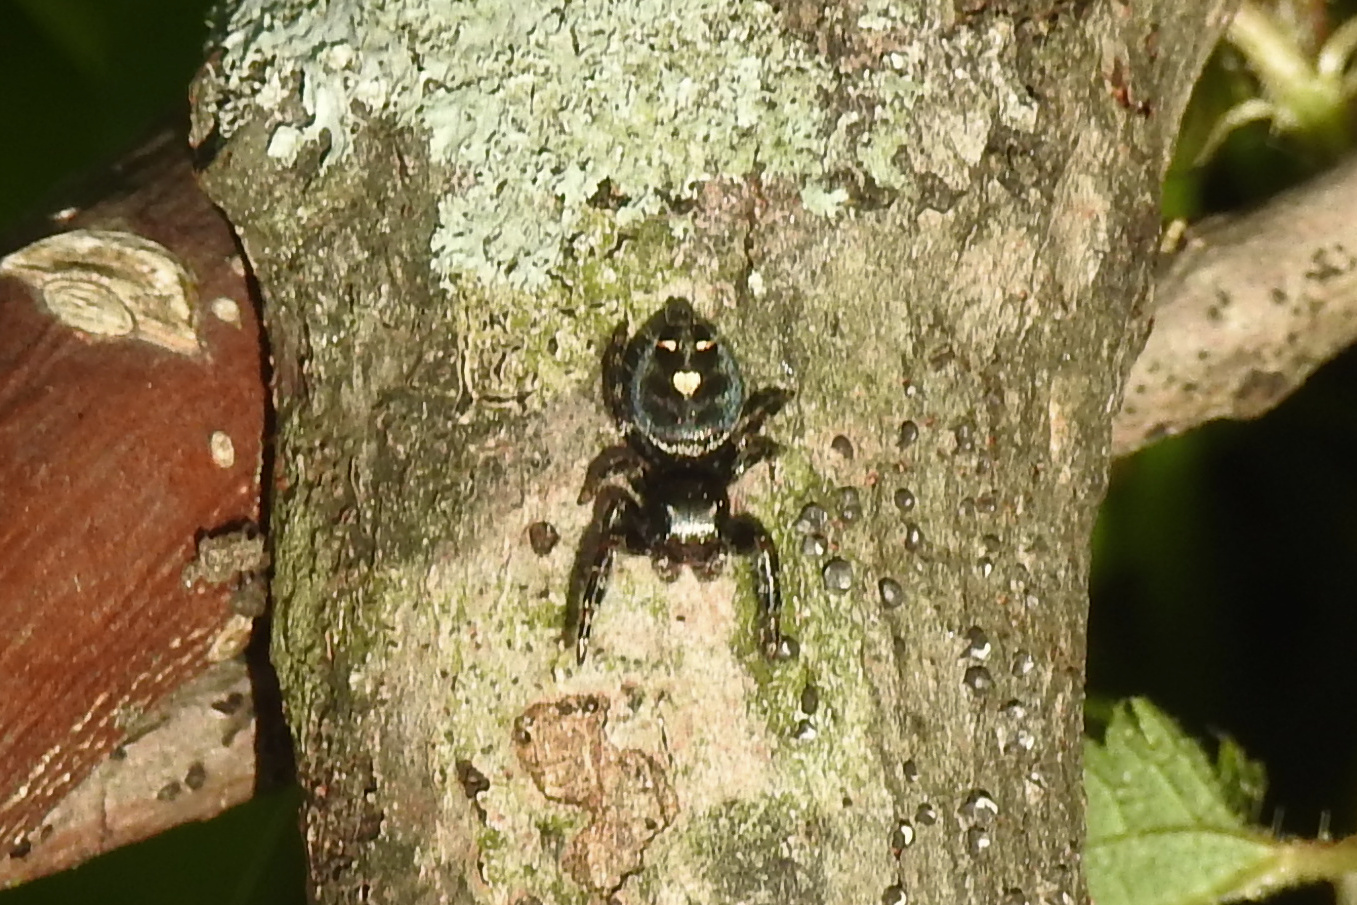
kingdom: Animalia
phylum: Arthropoda
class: Arachnida
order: Araneae
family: Salticidae
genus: Phidippus
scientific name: Phidippus audax
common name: Bold jumper
